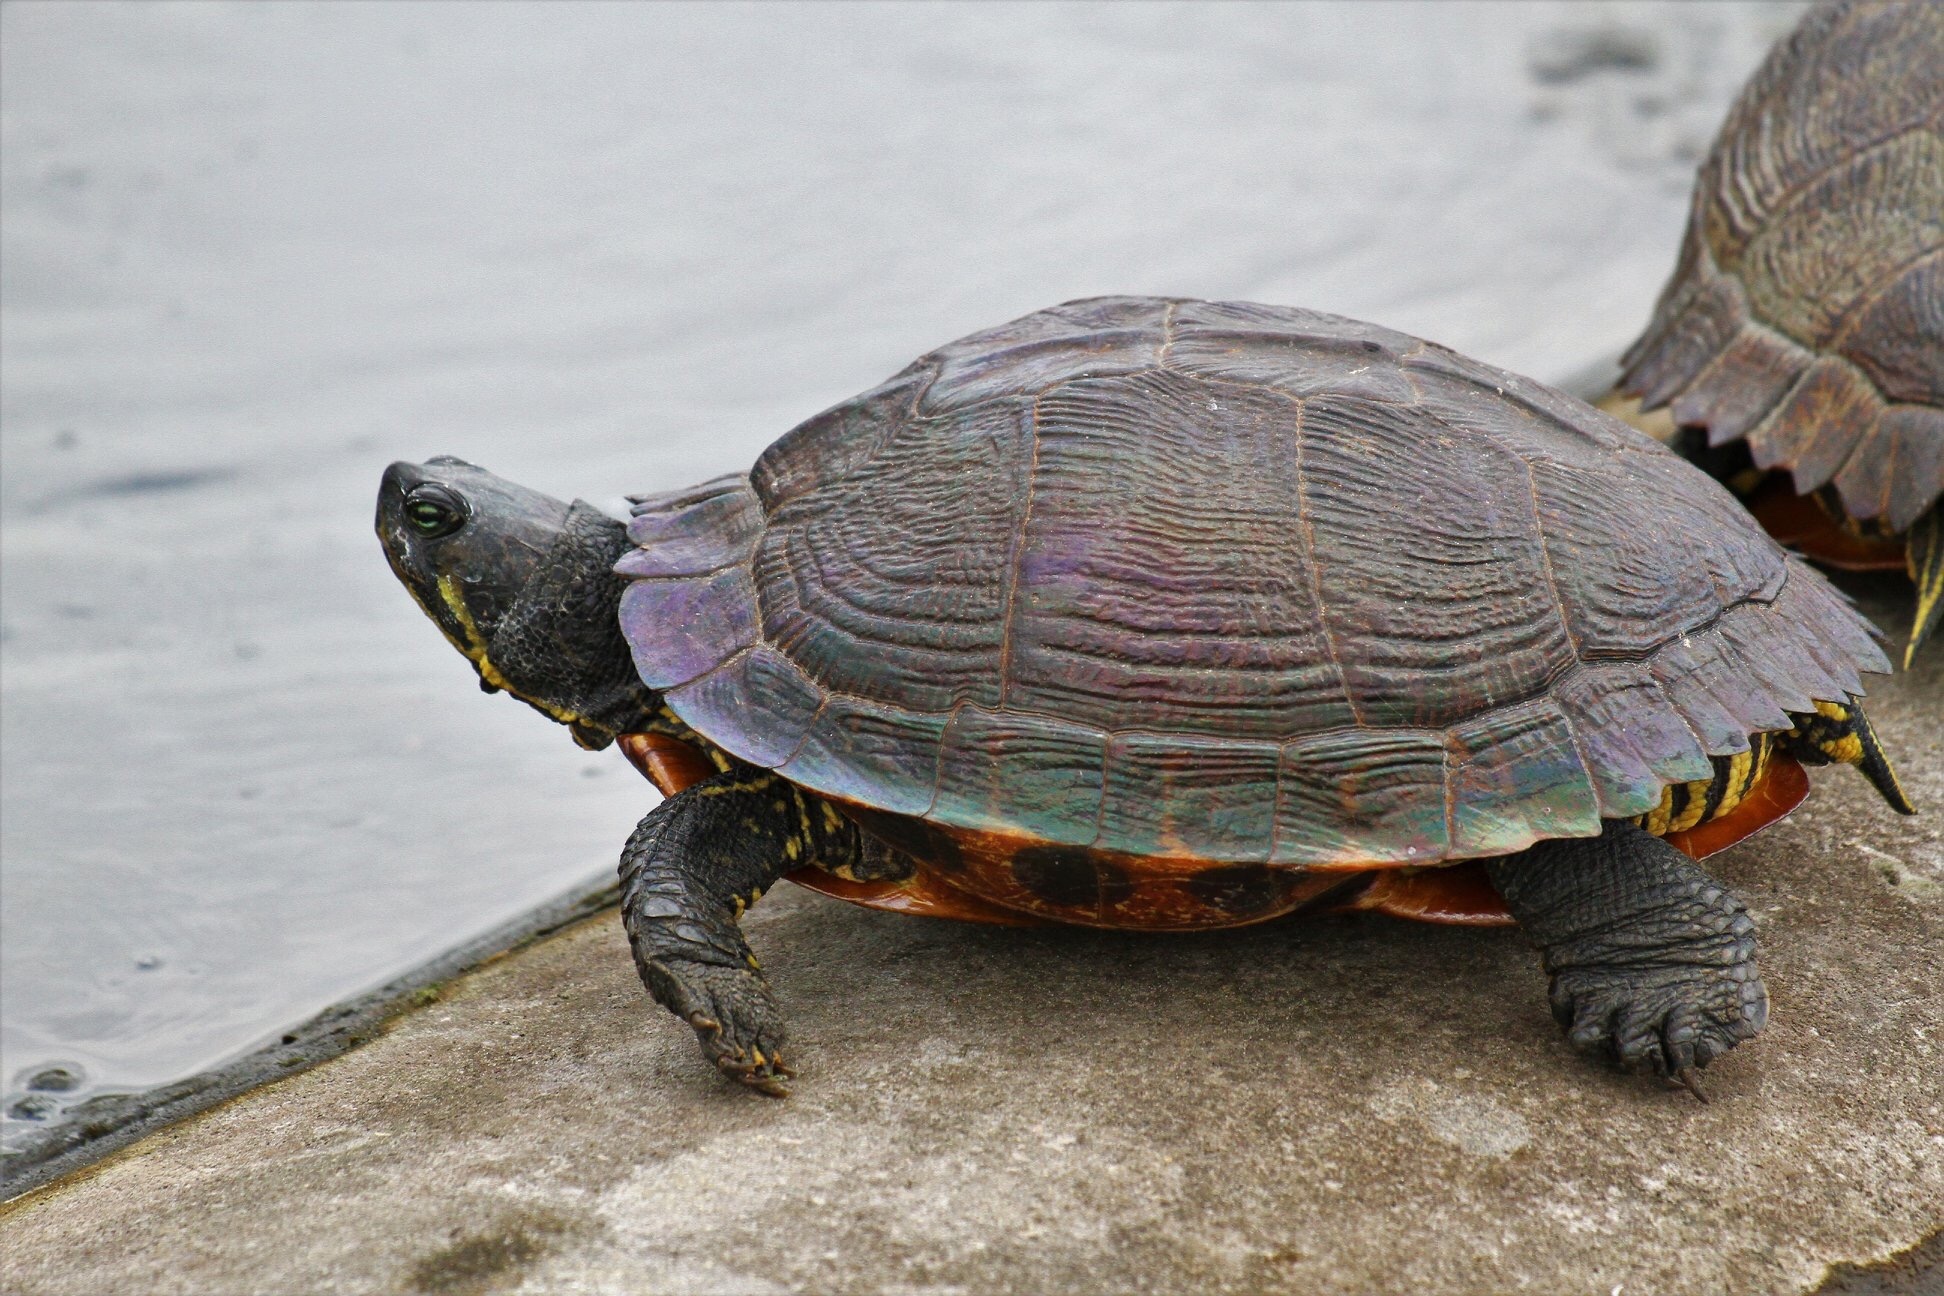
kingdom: Animalia
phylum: Chordata
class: Testudines
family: Emydidae
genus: Trachemys
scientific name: Trachemys scripta
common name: Slider
